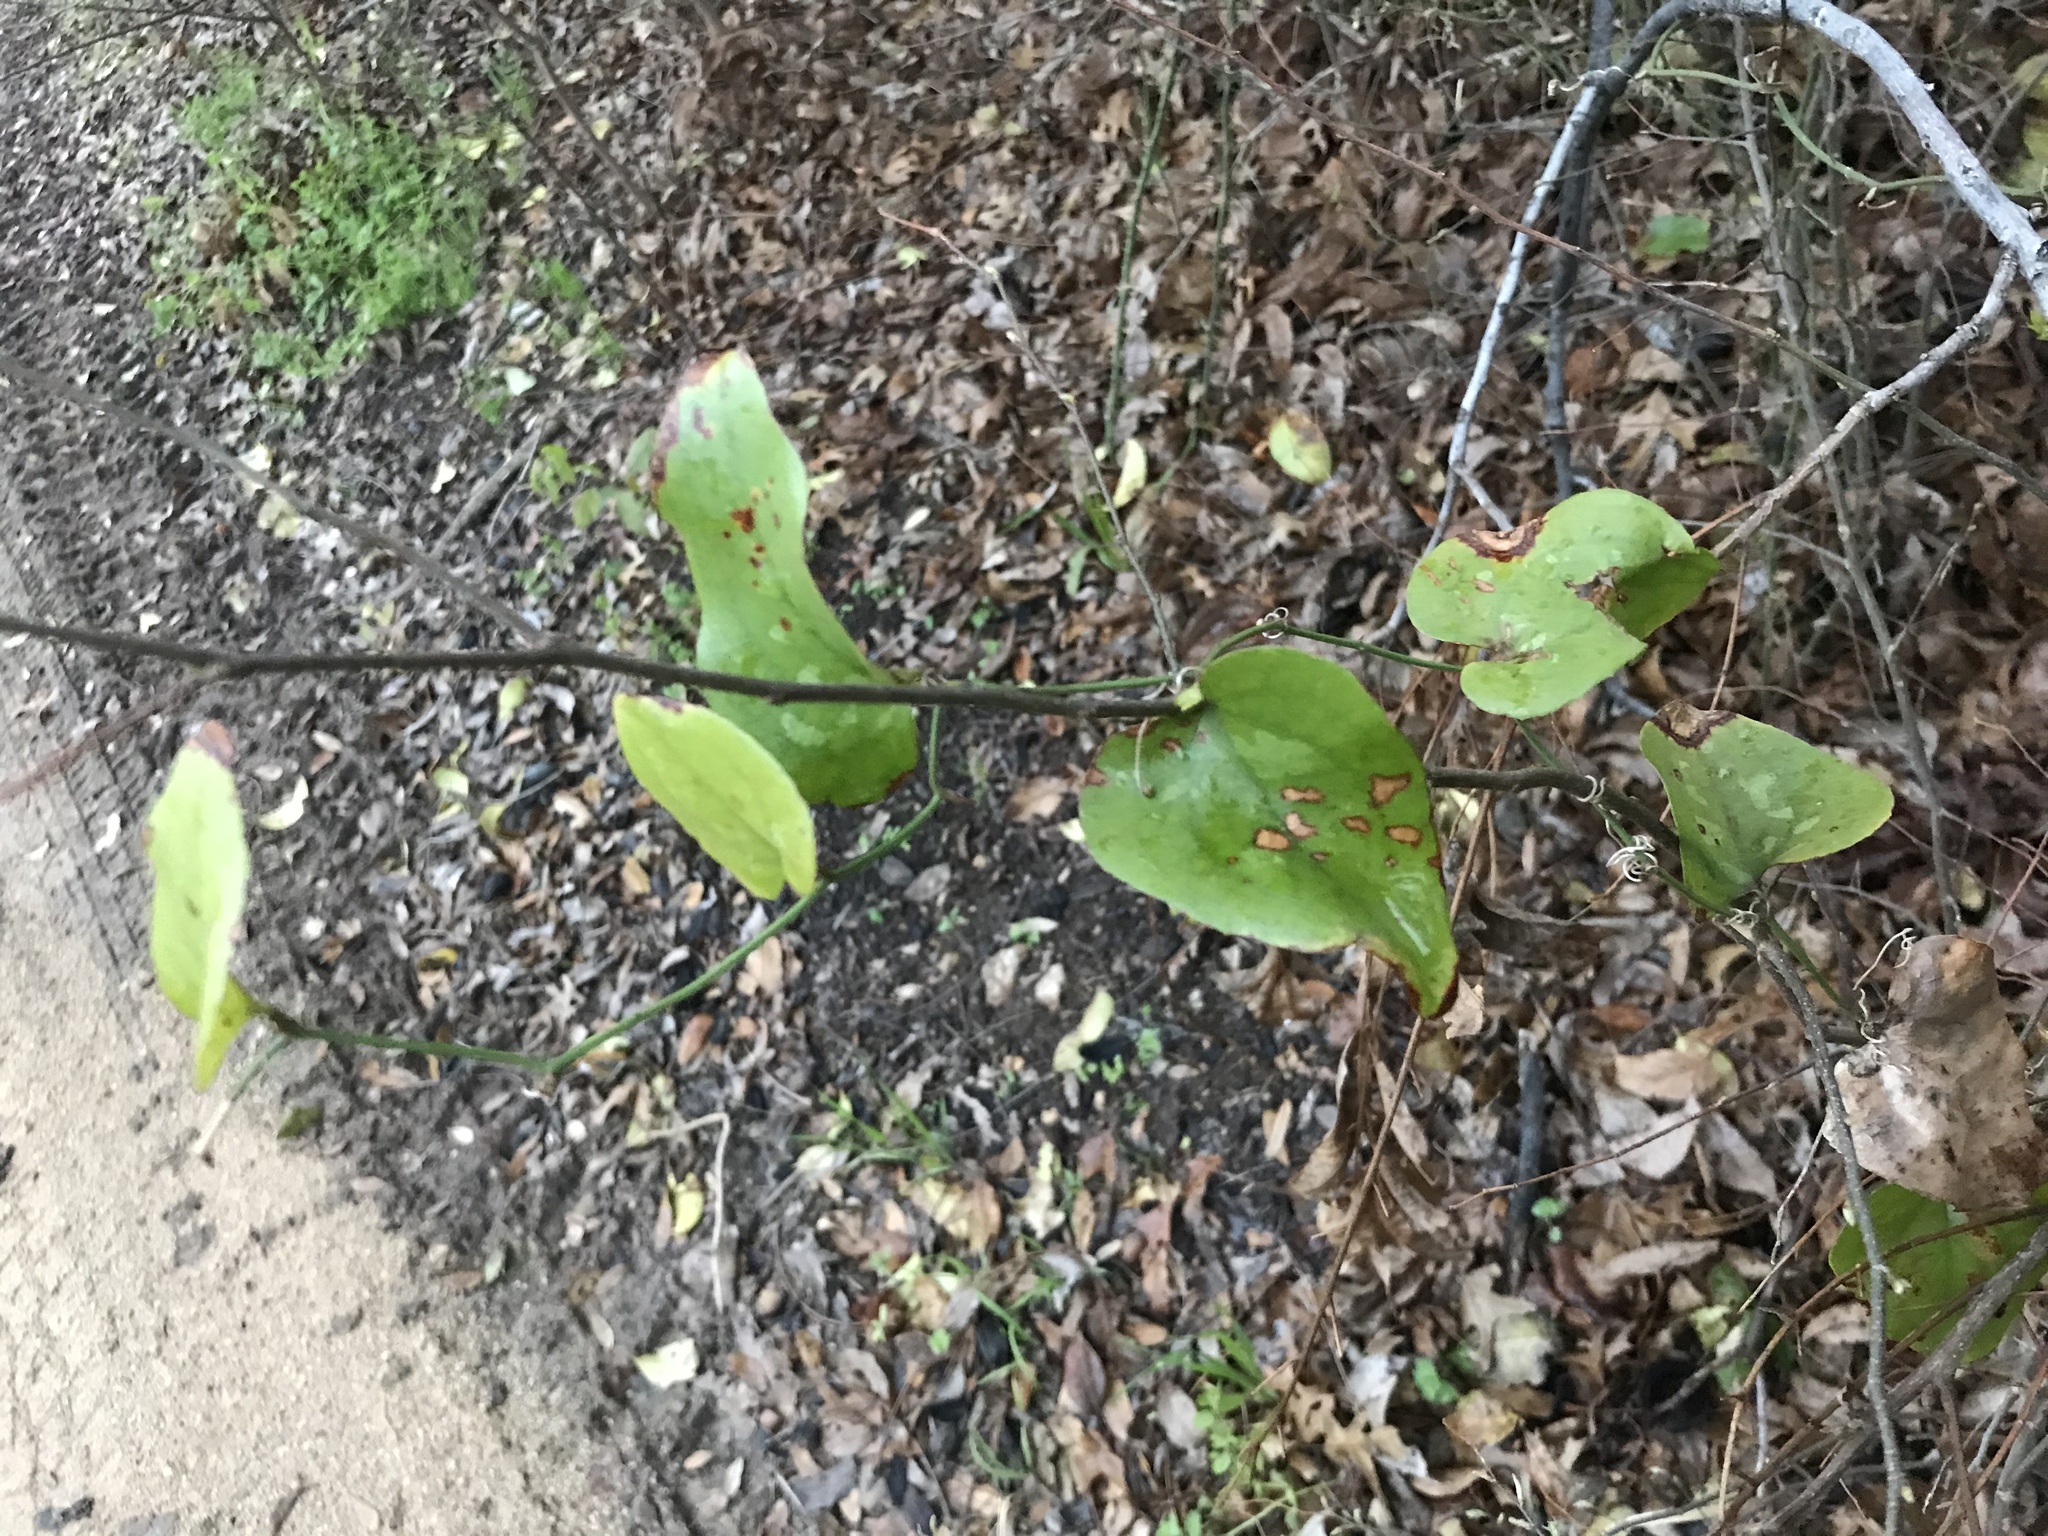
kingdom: Plantae
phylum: Tracheophyta
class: Liliopsida
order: Liliales
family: Smilacaceae
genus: Smilax
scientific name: Smilax bona-nox
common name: Catbrier
